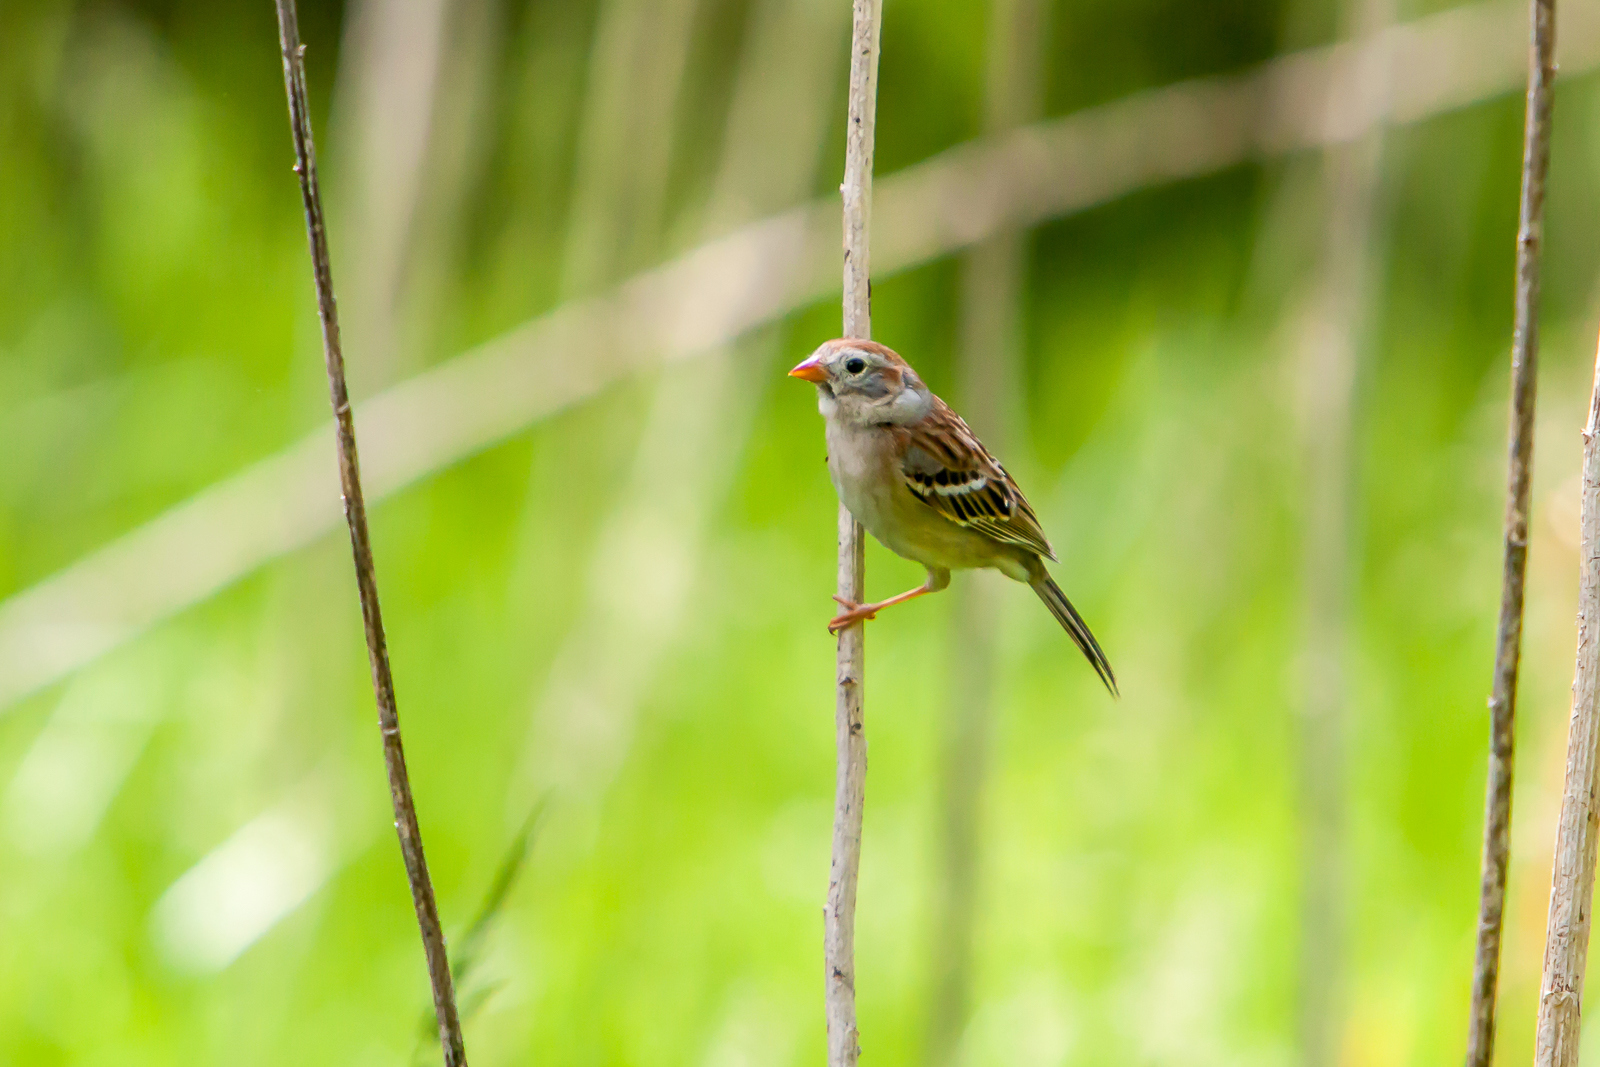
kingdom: Animalia
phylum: Chordata
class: Aves
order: Passeriformes
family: Passerellidae
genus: Spizella
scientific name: Spizella pusilla
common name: Field sparrow
